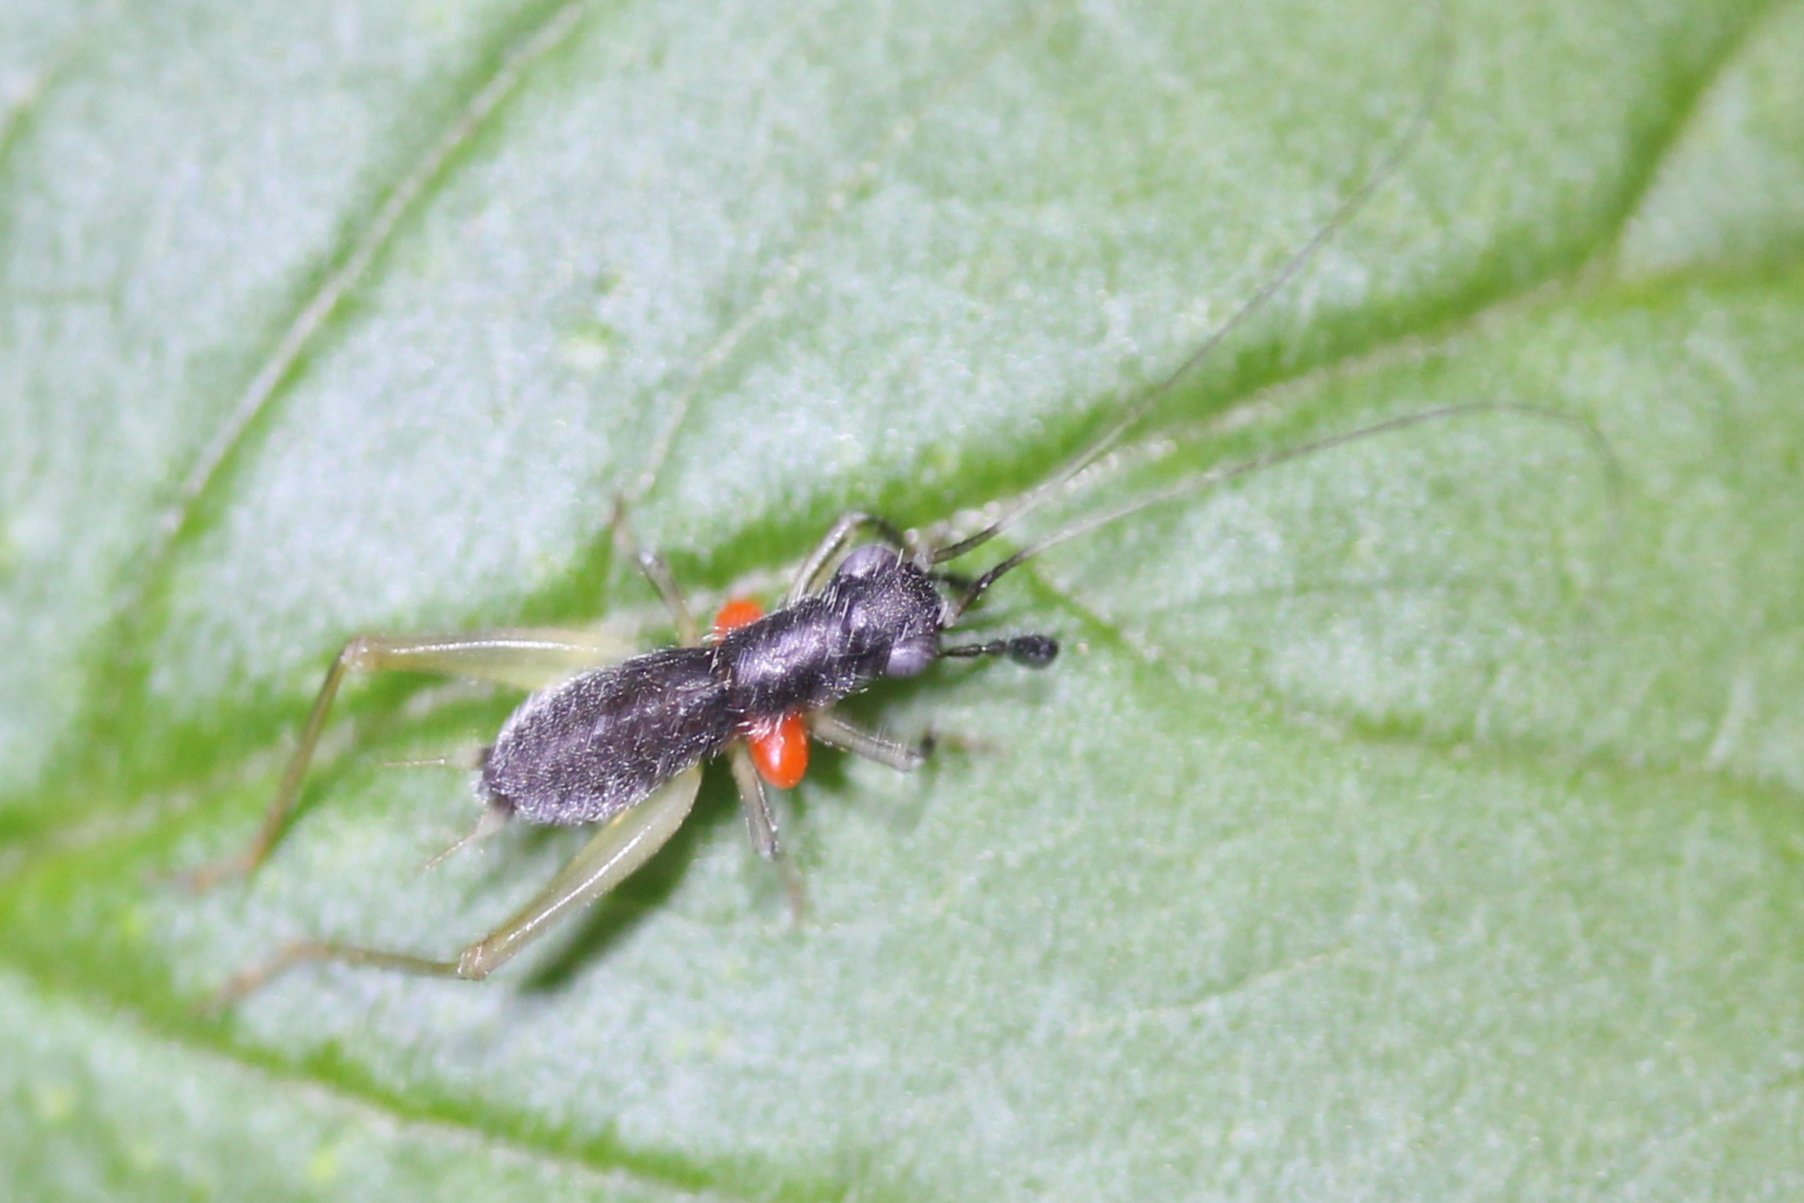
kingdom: Animalia
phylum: Arthropoda
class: Insecta
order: Orthoptera
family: Trigonidiidae
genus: Phyllopalpus
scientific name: Phyllopalpus pulchellus
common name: Handsome trig
